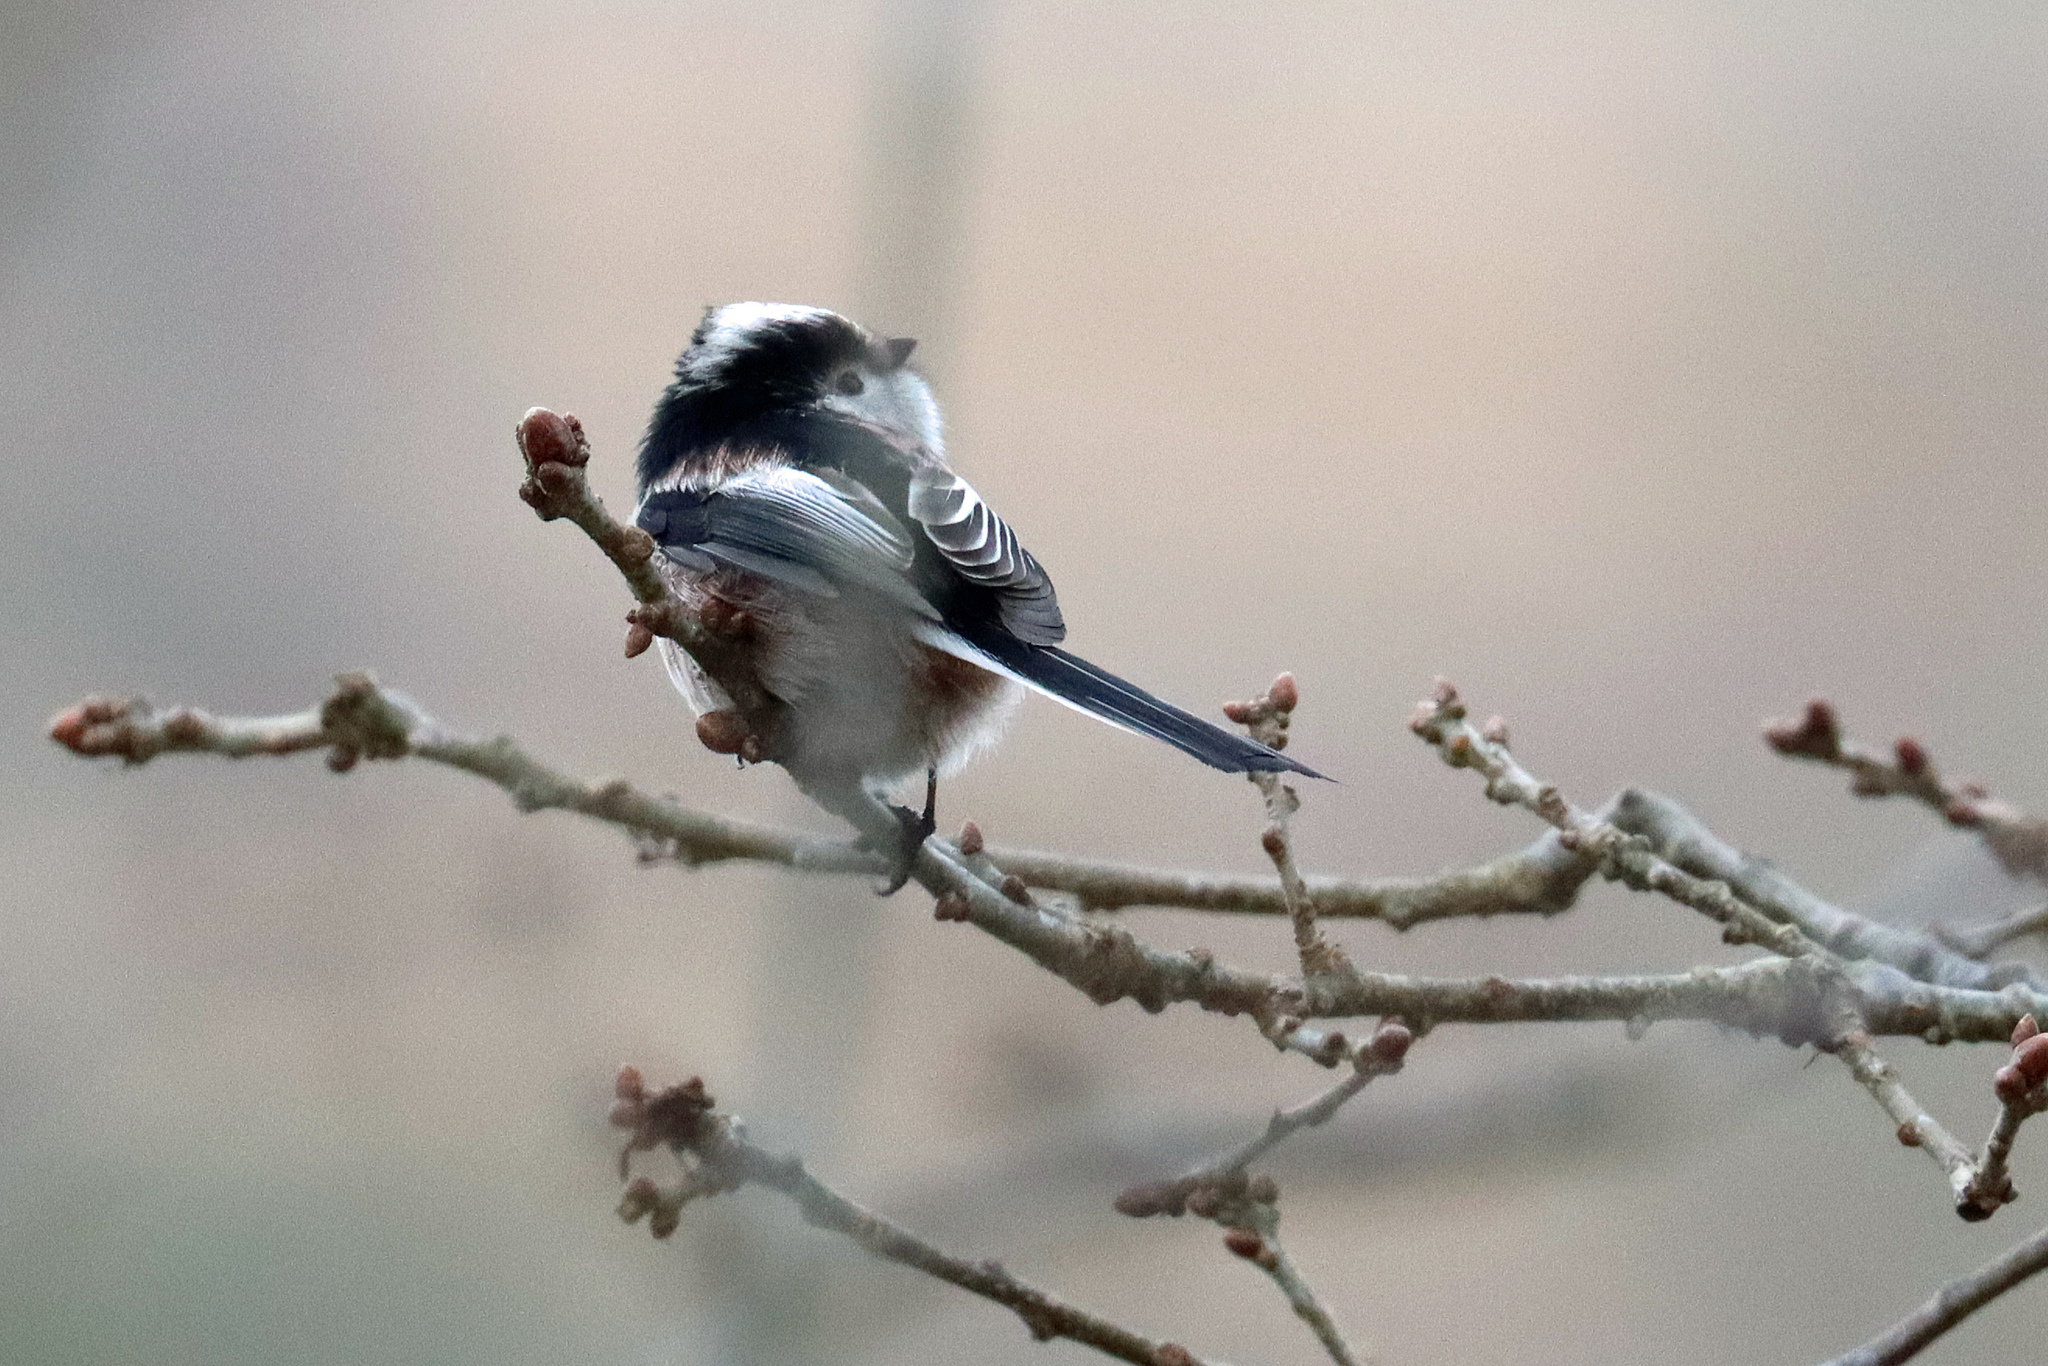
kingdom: Animalia
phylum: Chordata
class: Aves
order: Passeriformes
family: Aegithalidae
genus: Aegithalos
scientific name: Aegithalos caudatus
